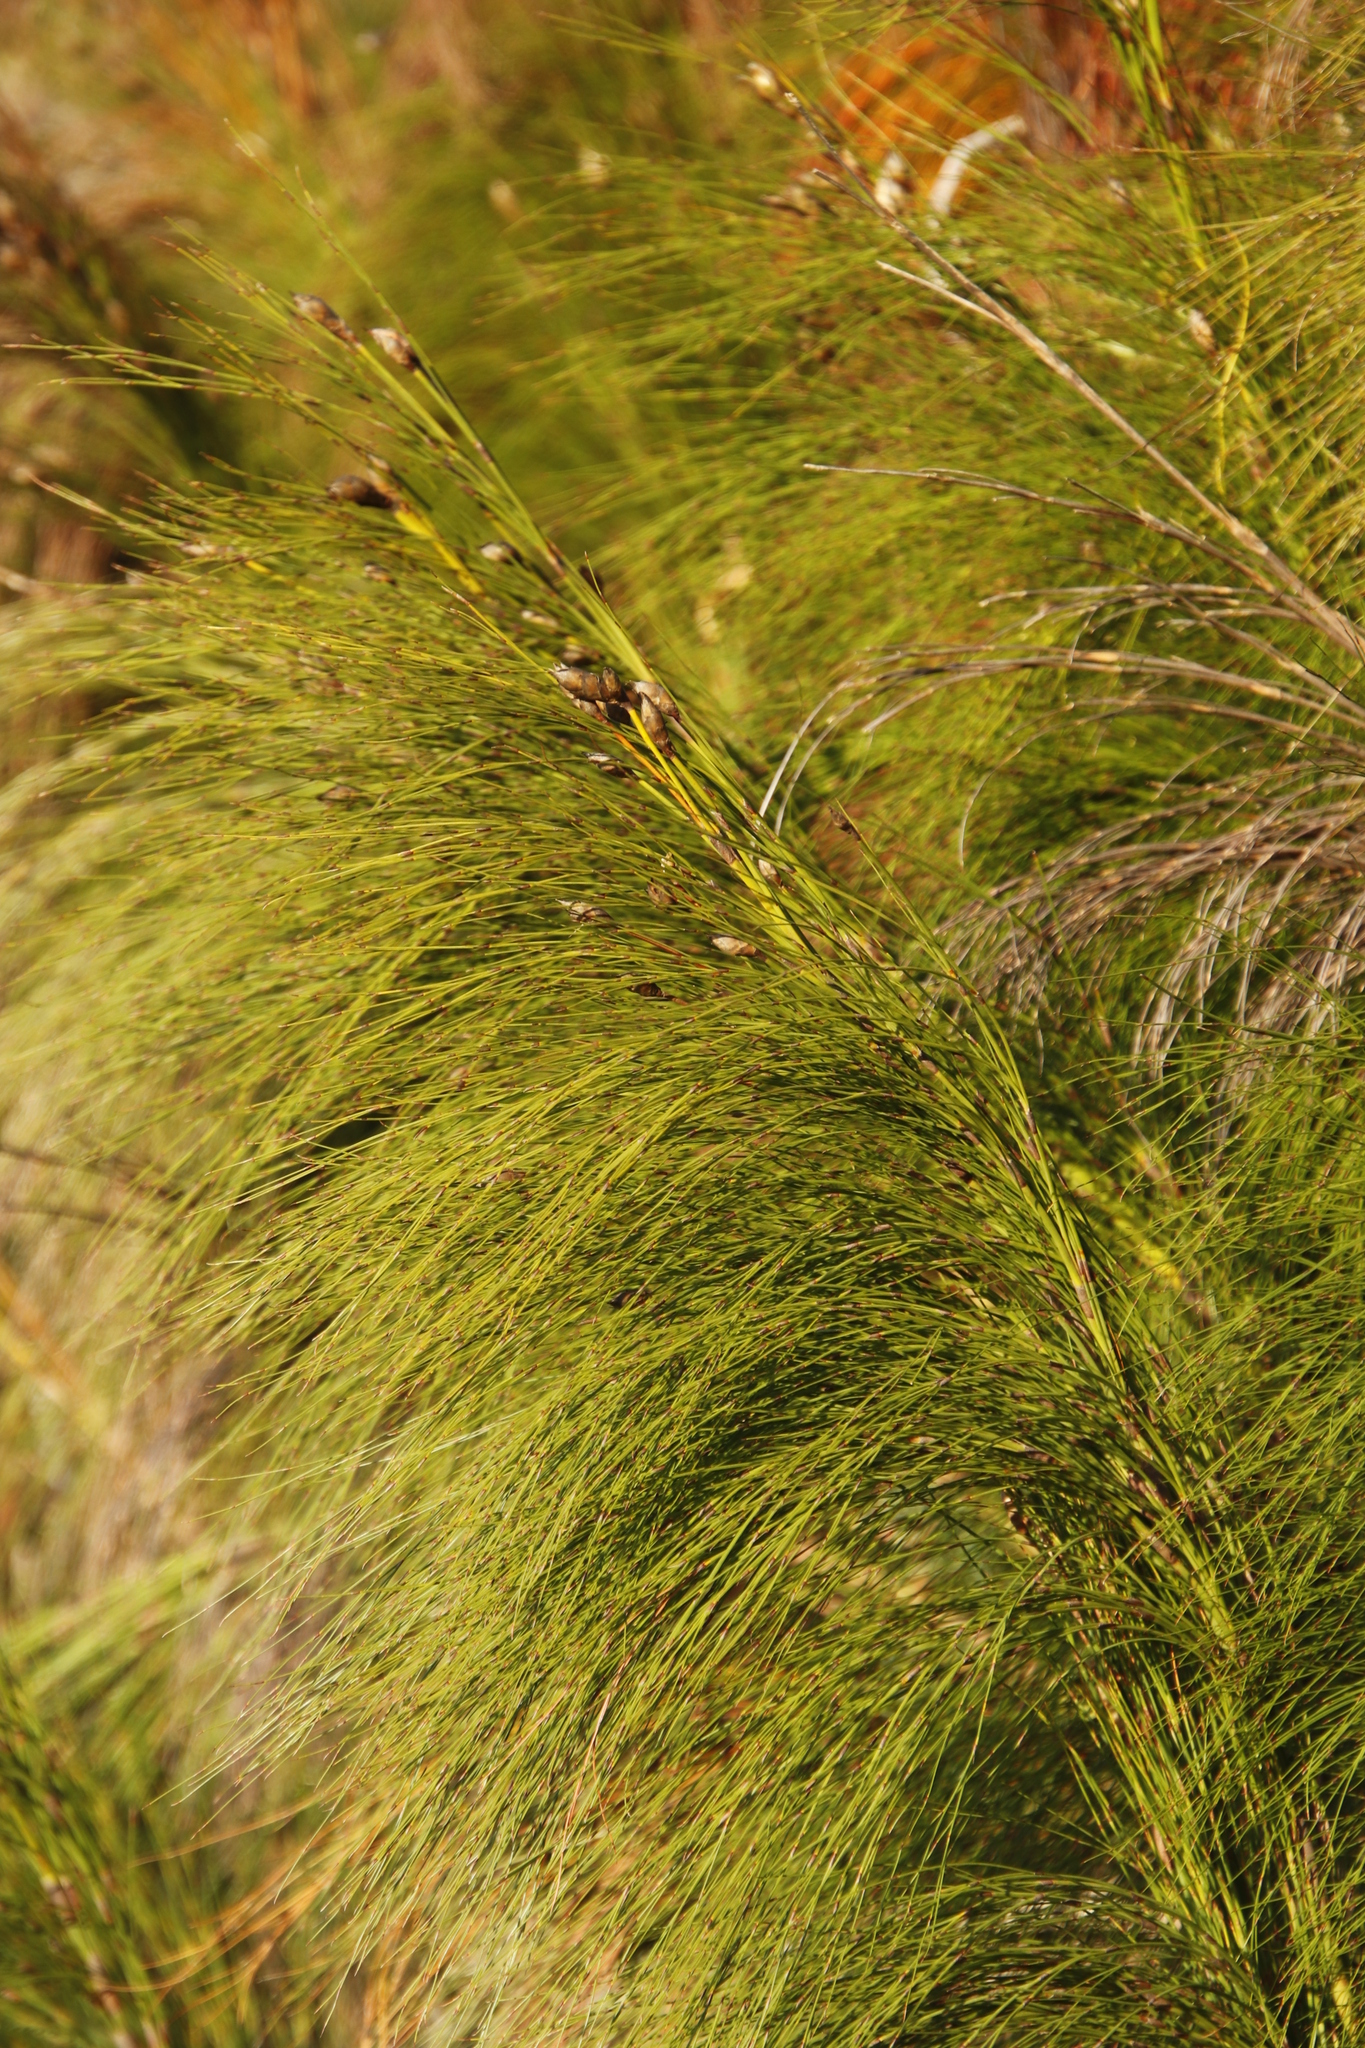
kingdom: Plantae
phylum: Tracheophyta
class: Liliopsida
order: Poales
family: Restionaceae
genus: Cannomois
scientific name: Cannomois virgata
